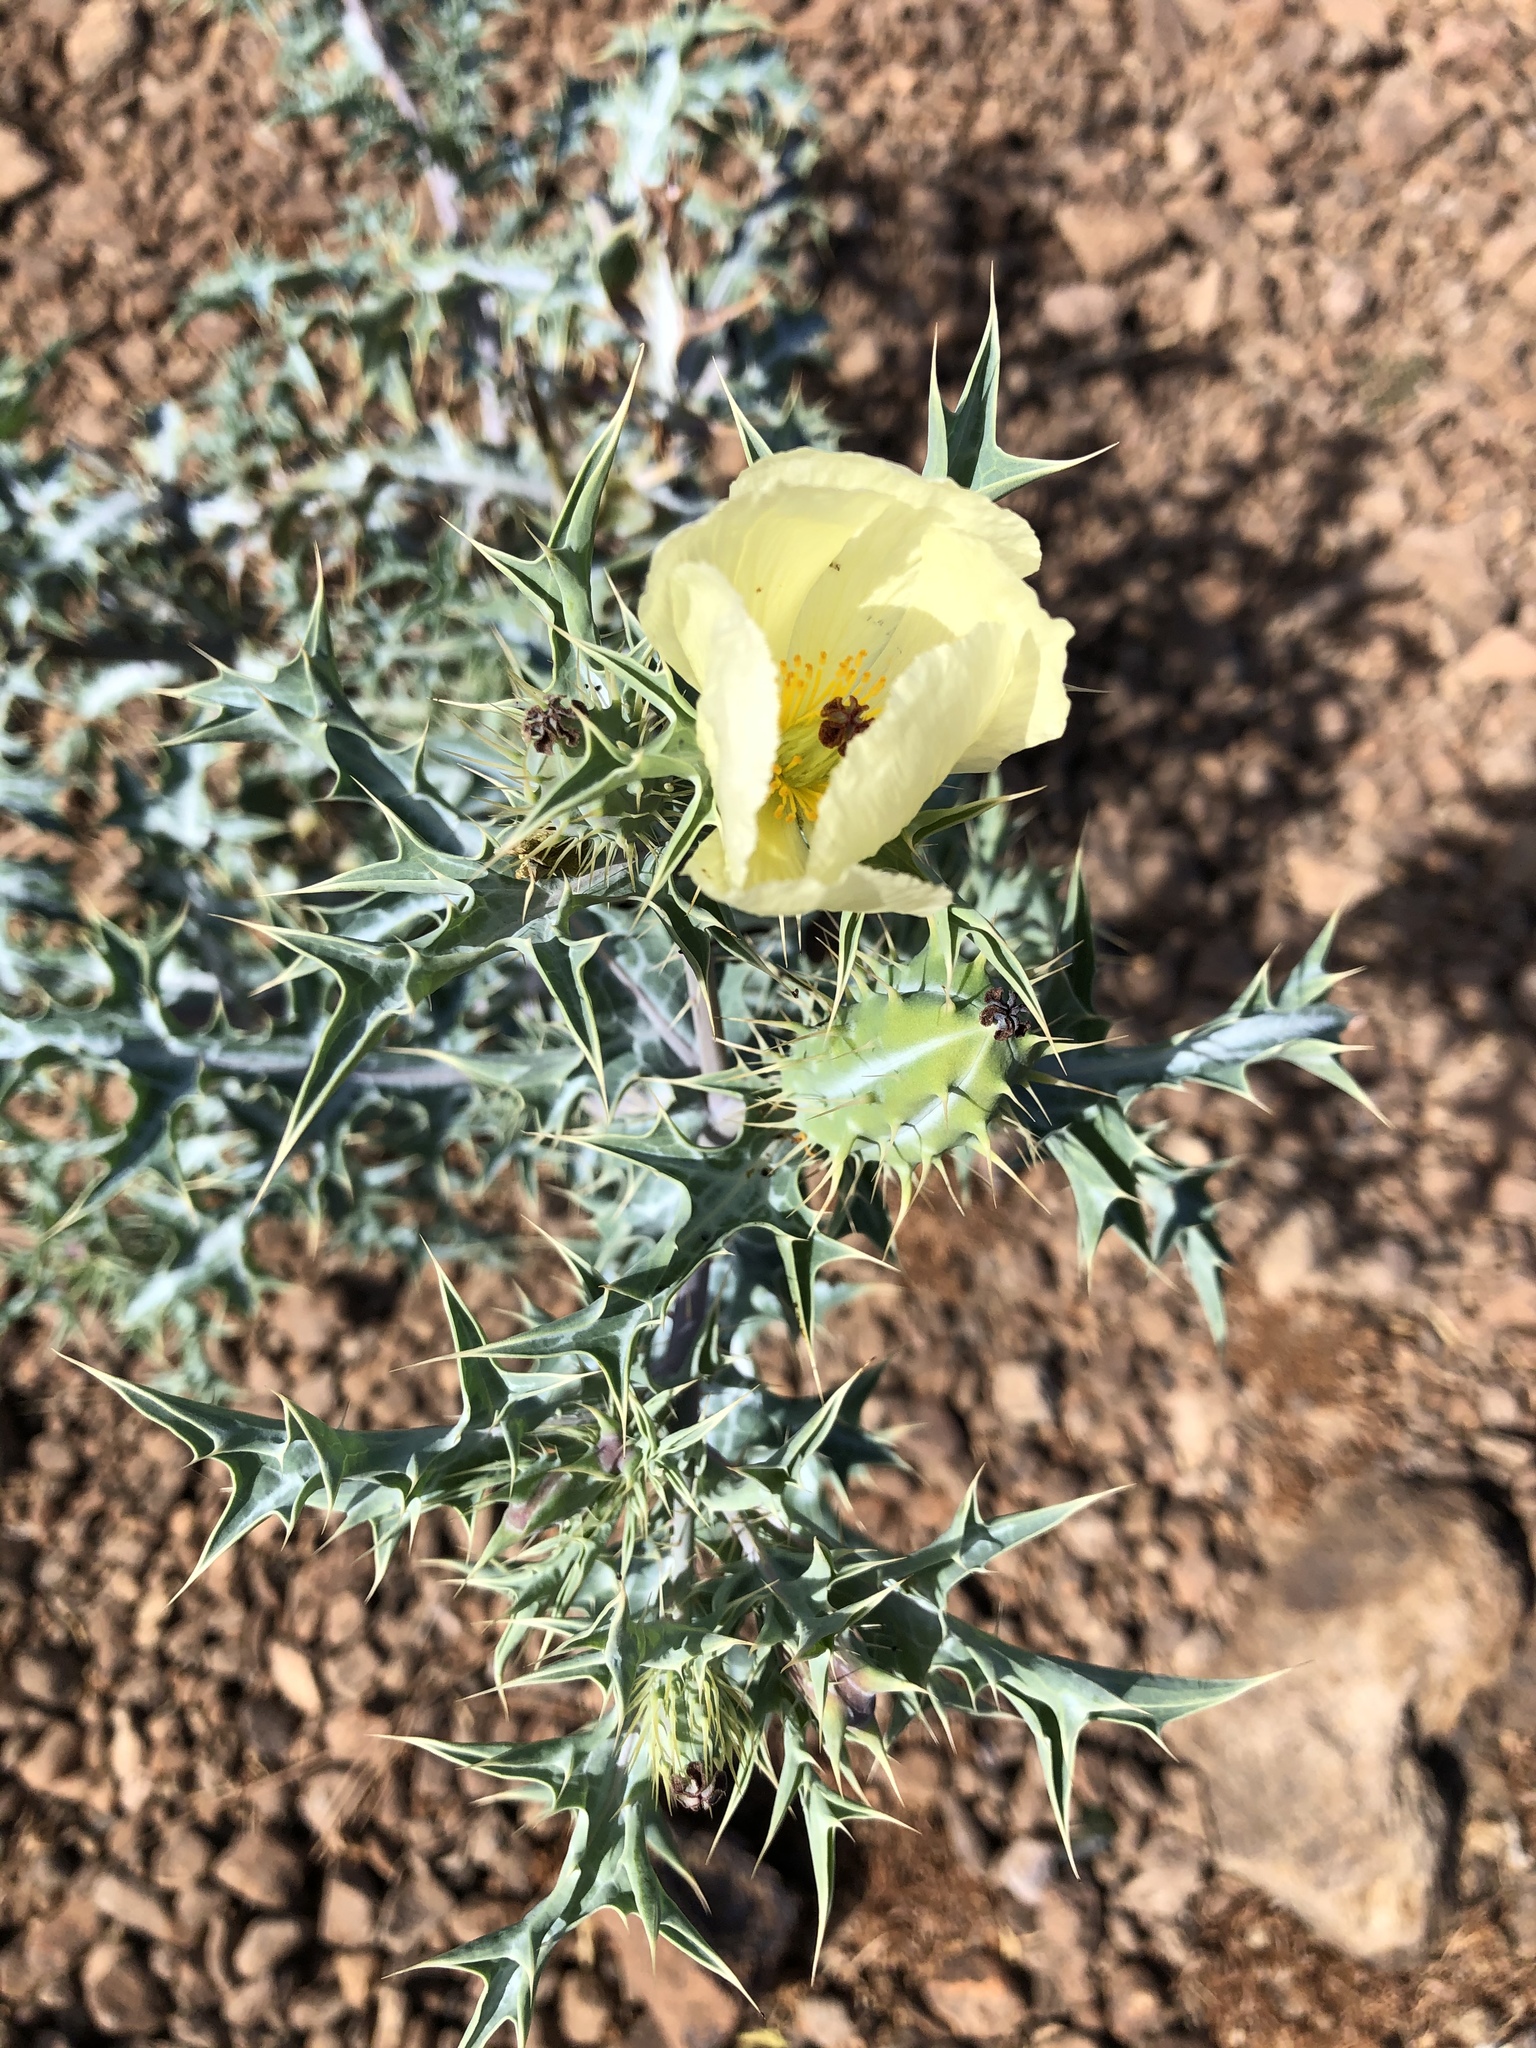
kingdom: Plantae
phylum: Tracheophyta
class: Magnoliopsida
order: Ranunculales
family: Papaveraceae
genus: Argemone
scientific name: Argemone ochroleuca
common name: White-flower mexican-poppy
